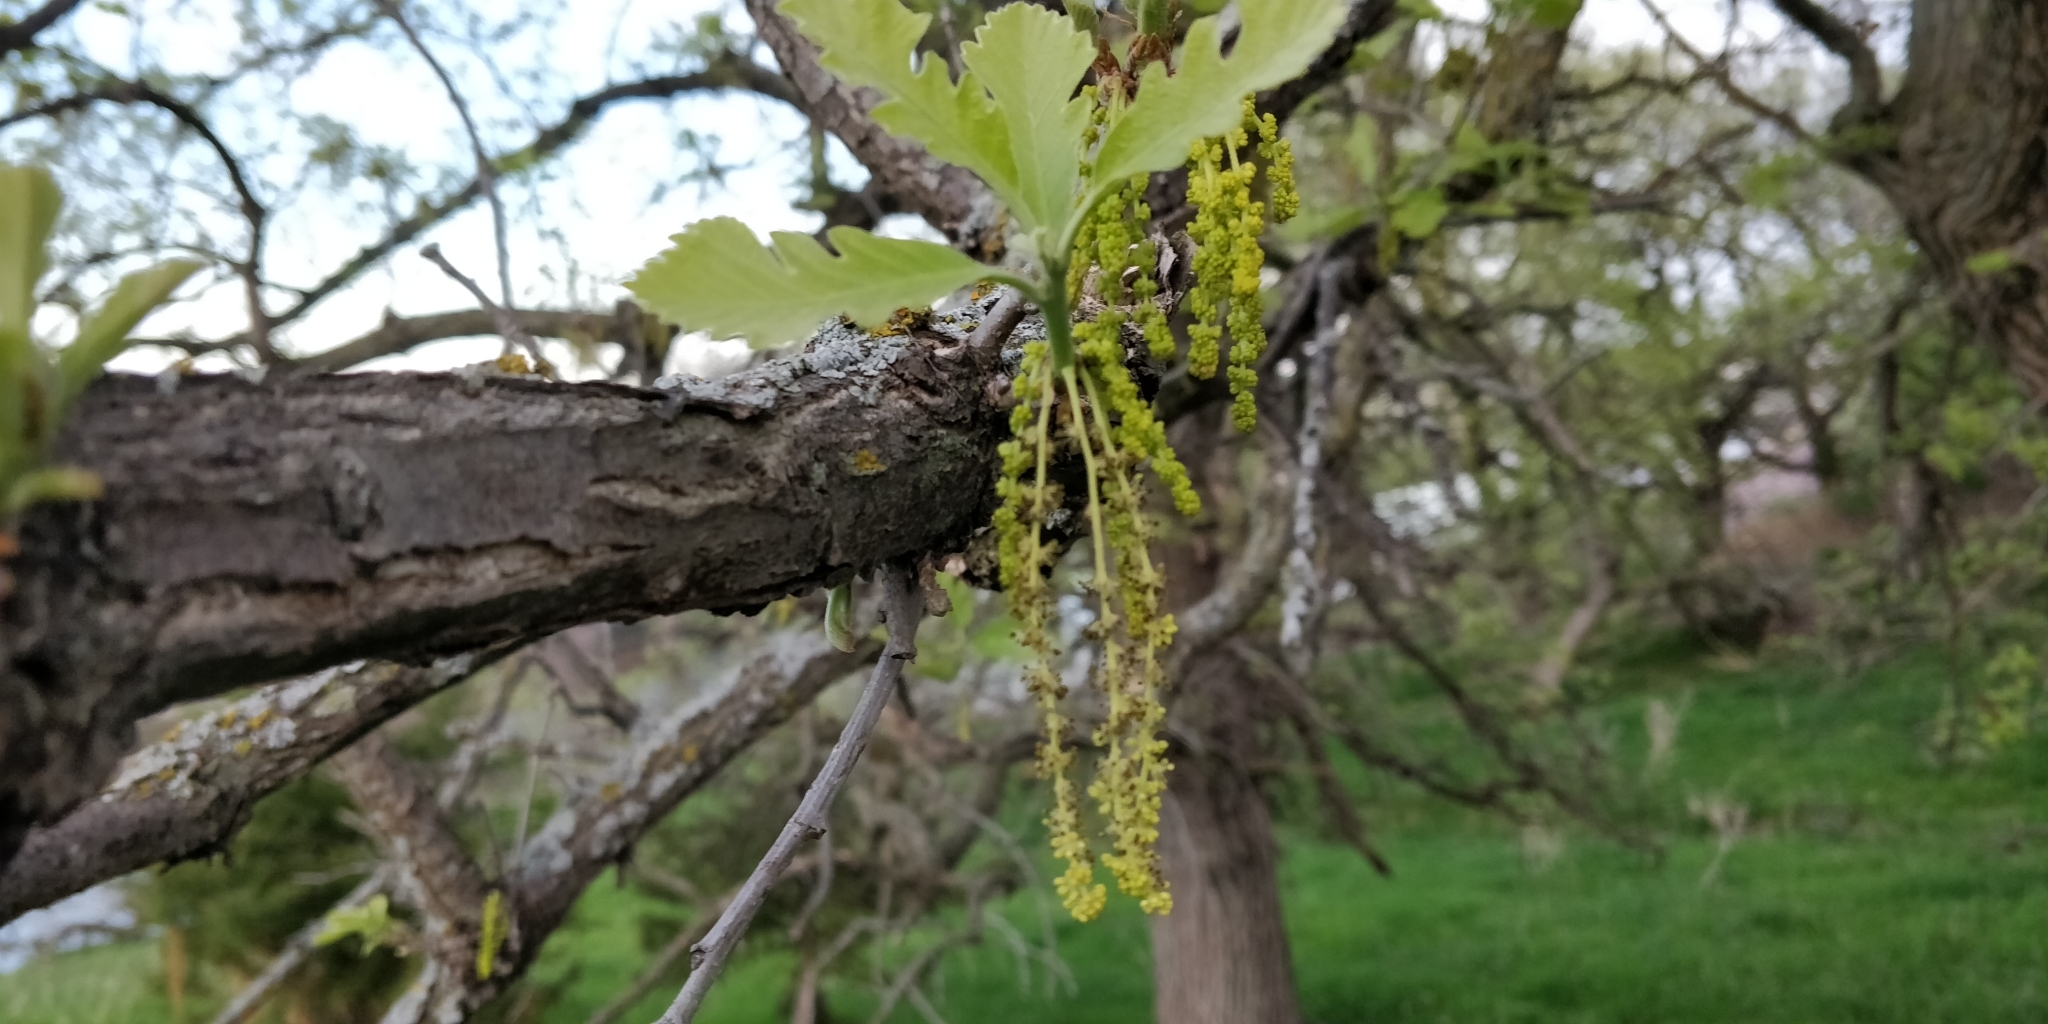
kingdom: Plantae
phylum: Tracheophyta
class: Magnoliopsida
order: Fagales
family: Fagaceae
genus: Quercus
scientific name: Quercus macrocarpa
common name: Bur oak
